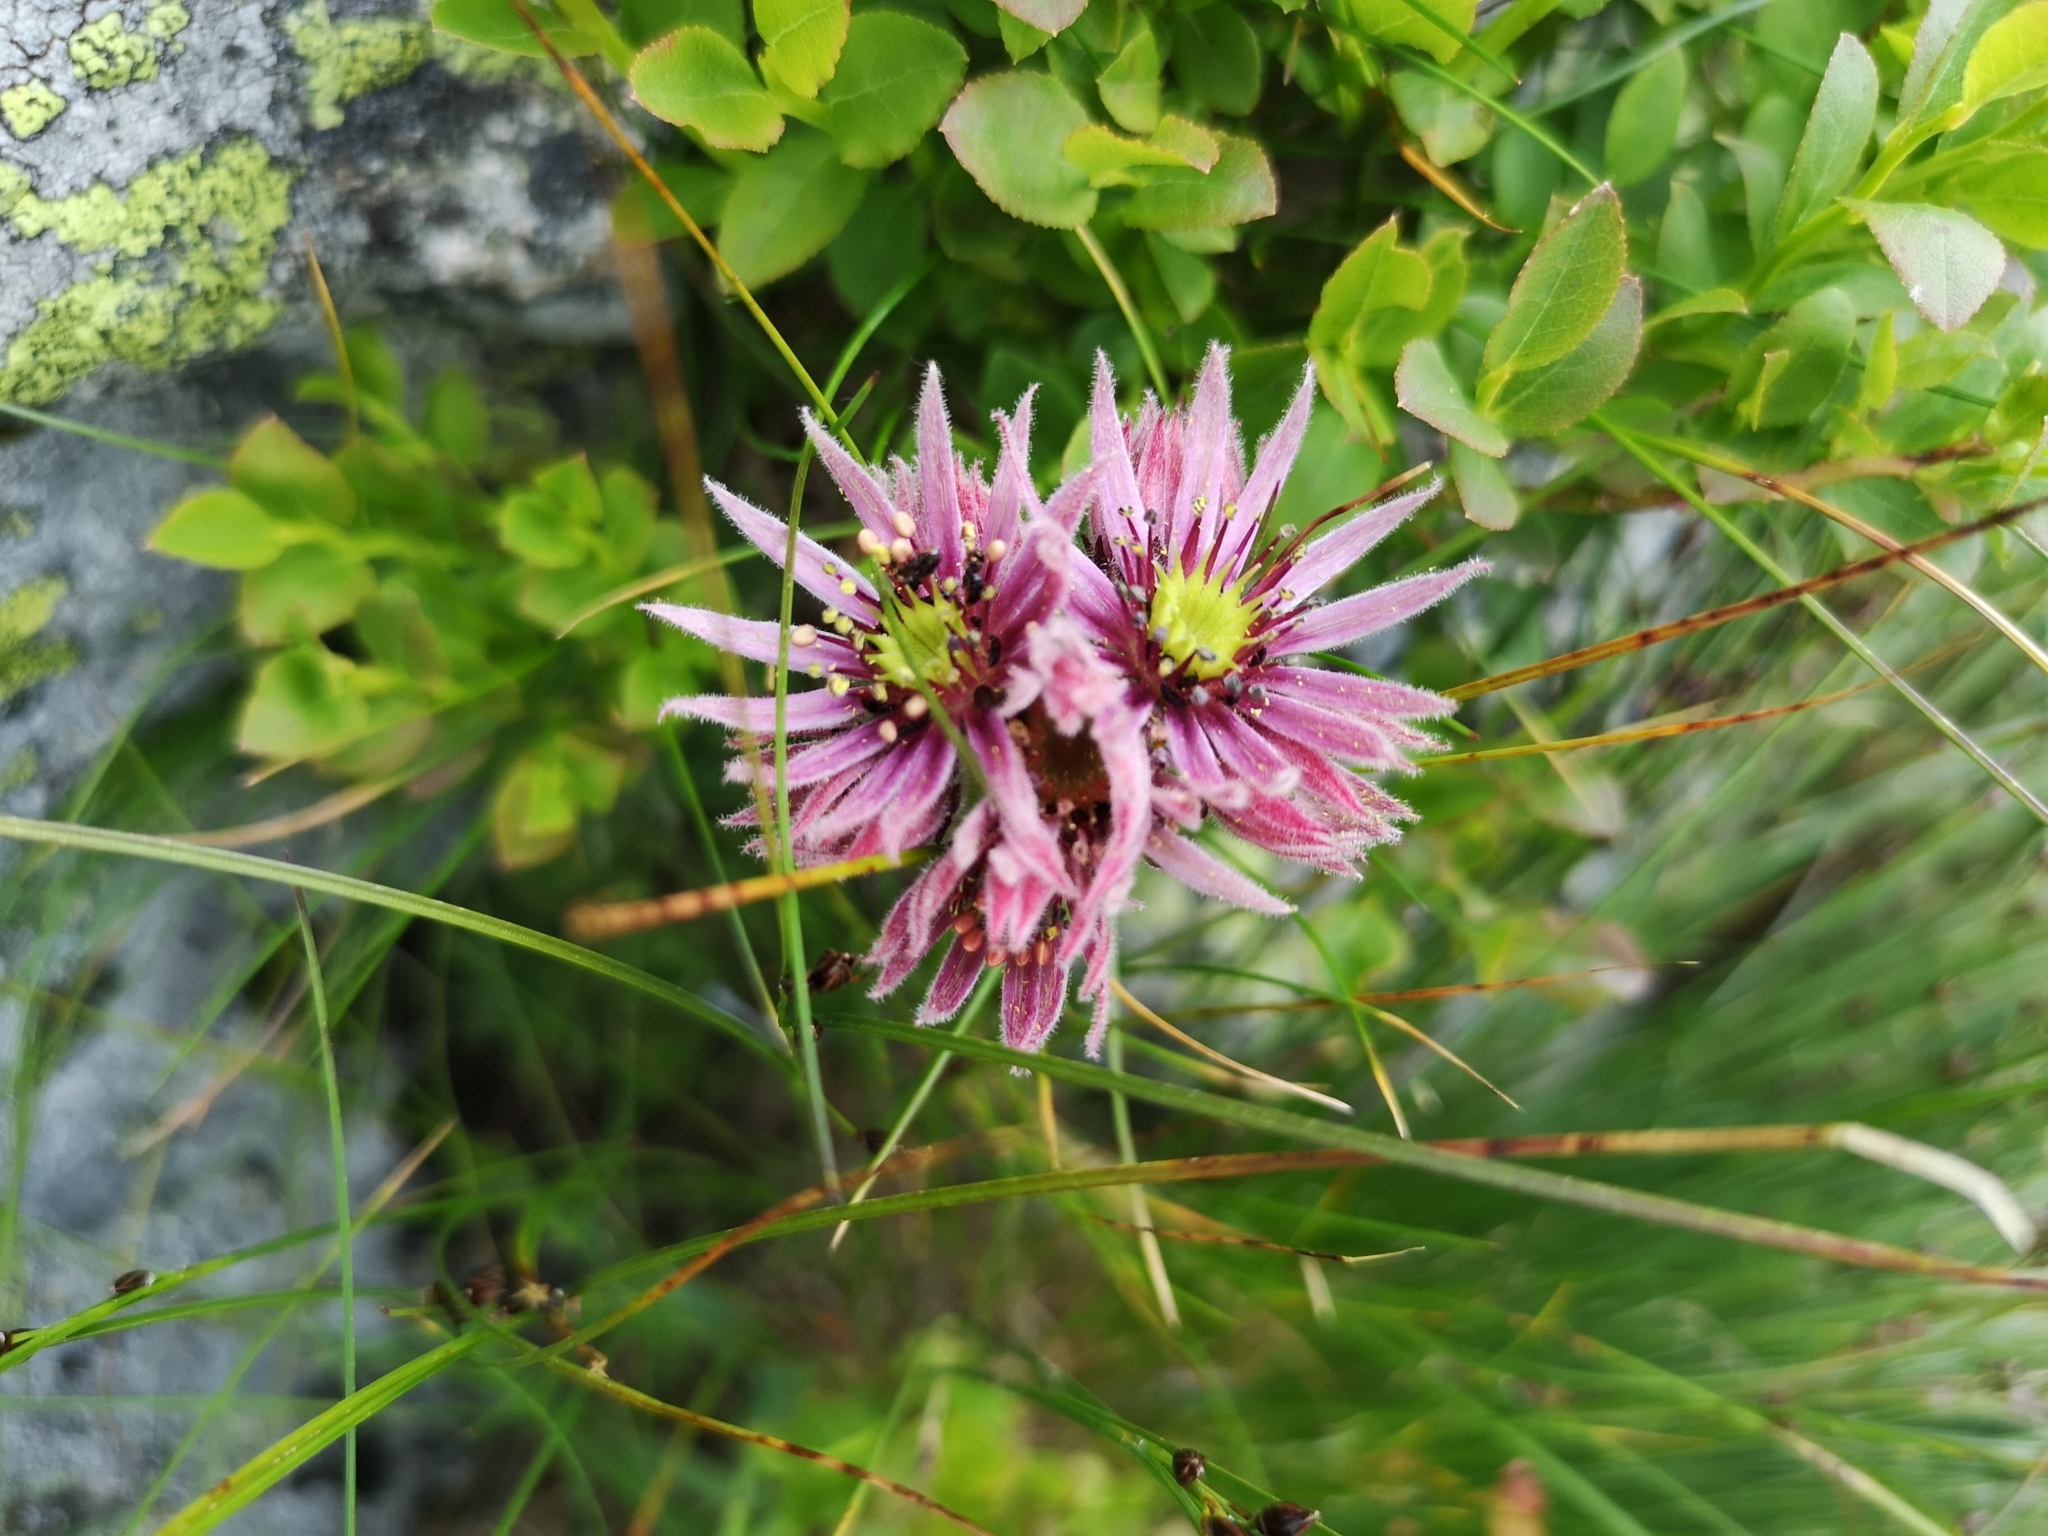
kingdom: Plantae
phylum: Tracheophyta
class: Magnoliopsida
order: Saxifragales
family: Crassulaceae
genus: Sempervivum
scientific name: Sempervivum montanum
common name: Mountain house-leek
